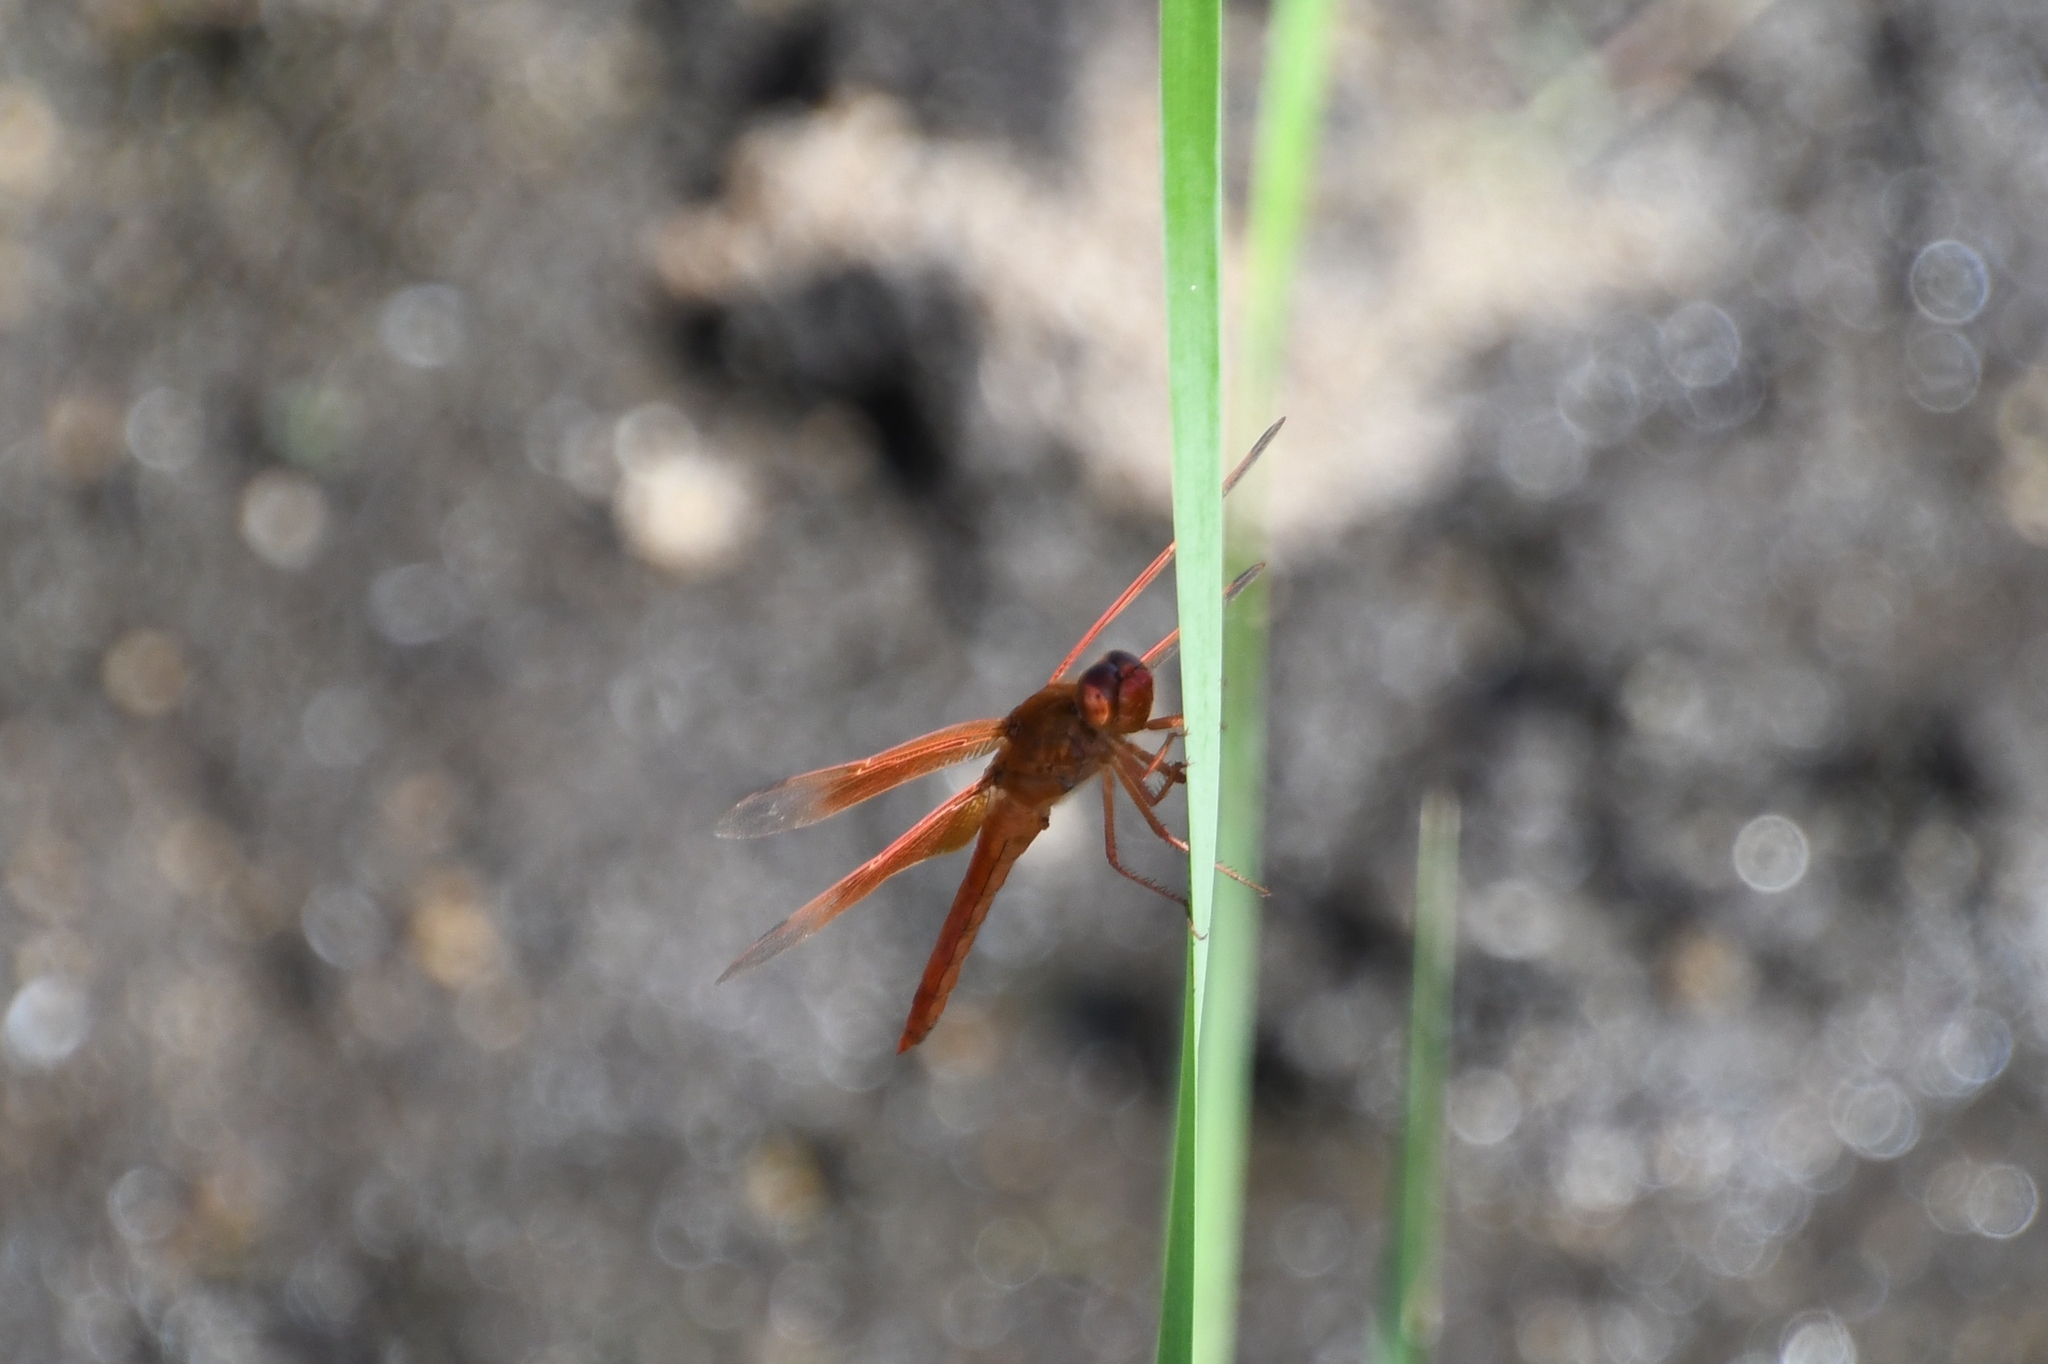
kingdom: Animalia
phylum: Arthropoda
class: Insecta
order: Odonata
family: Libellulidae
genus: Libellula
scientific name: Libellula saturata
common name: Flame skimmer
